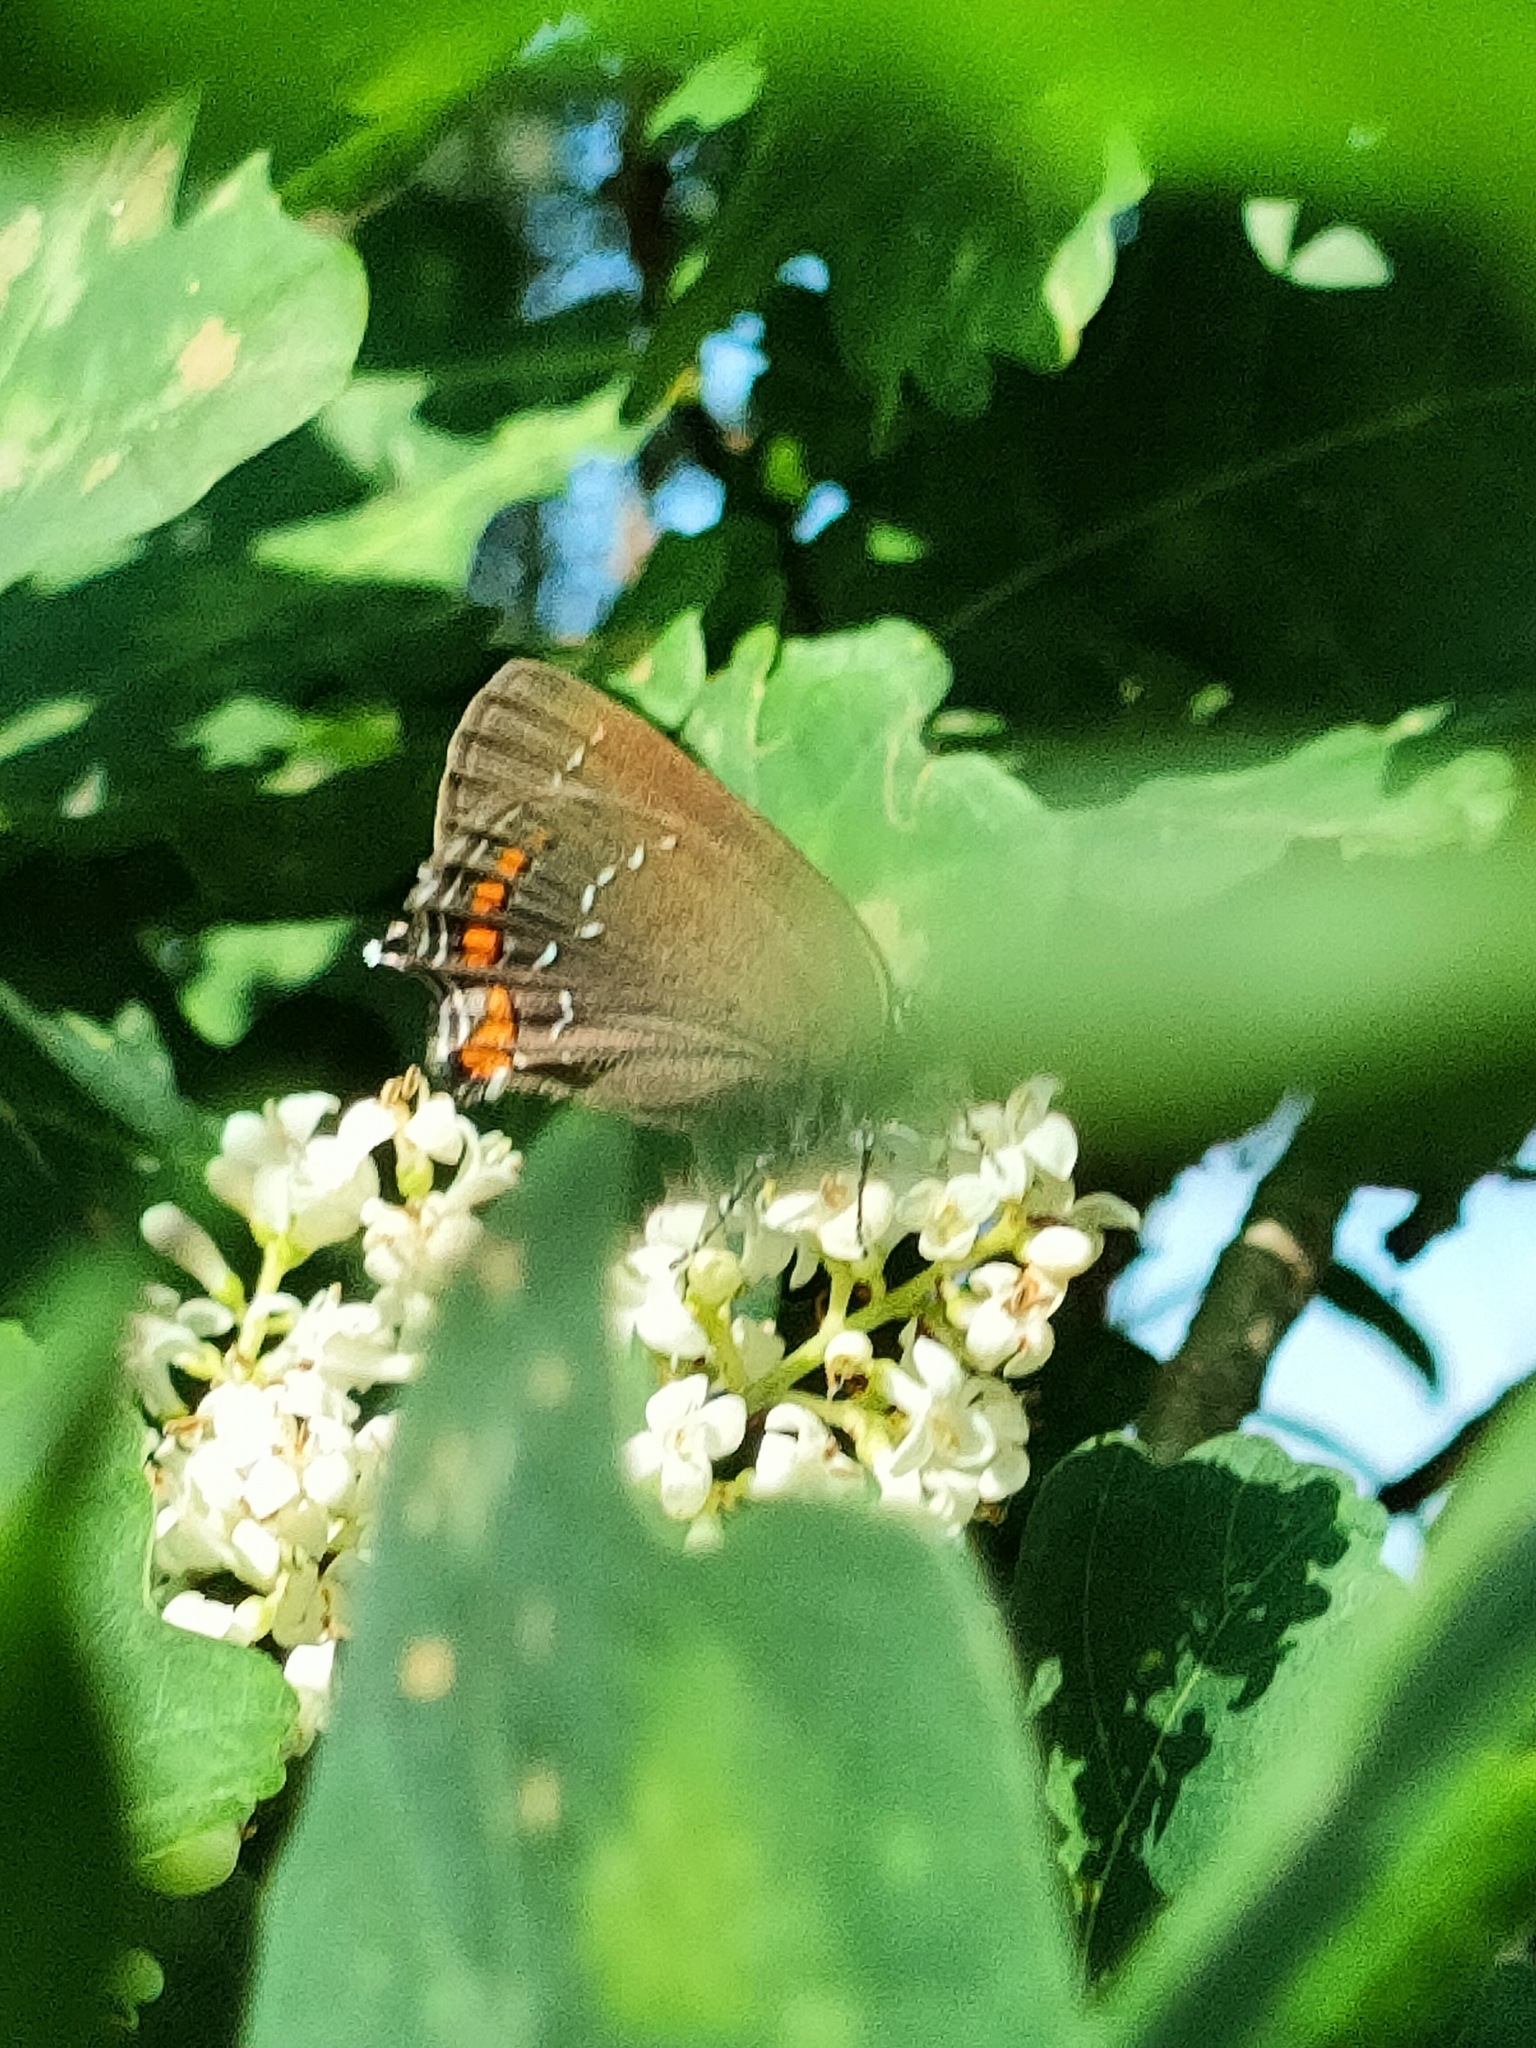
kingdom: Animalia
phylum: Arthropoda
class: Insecta
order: Lepidoptera
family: Lycaenidae
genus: Nordmannia
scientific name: Nordmannia ilicis
